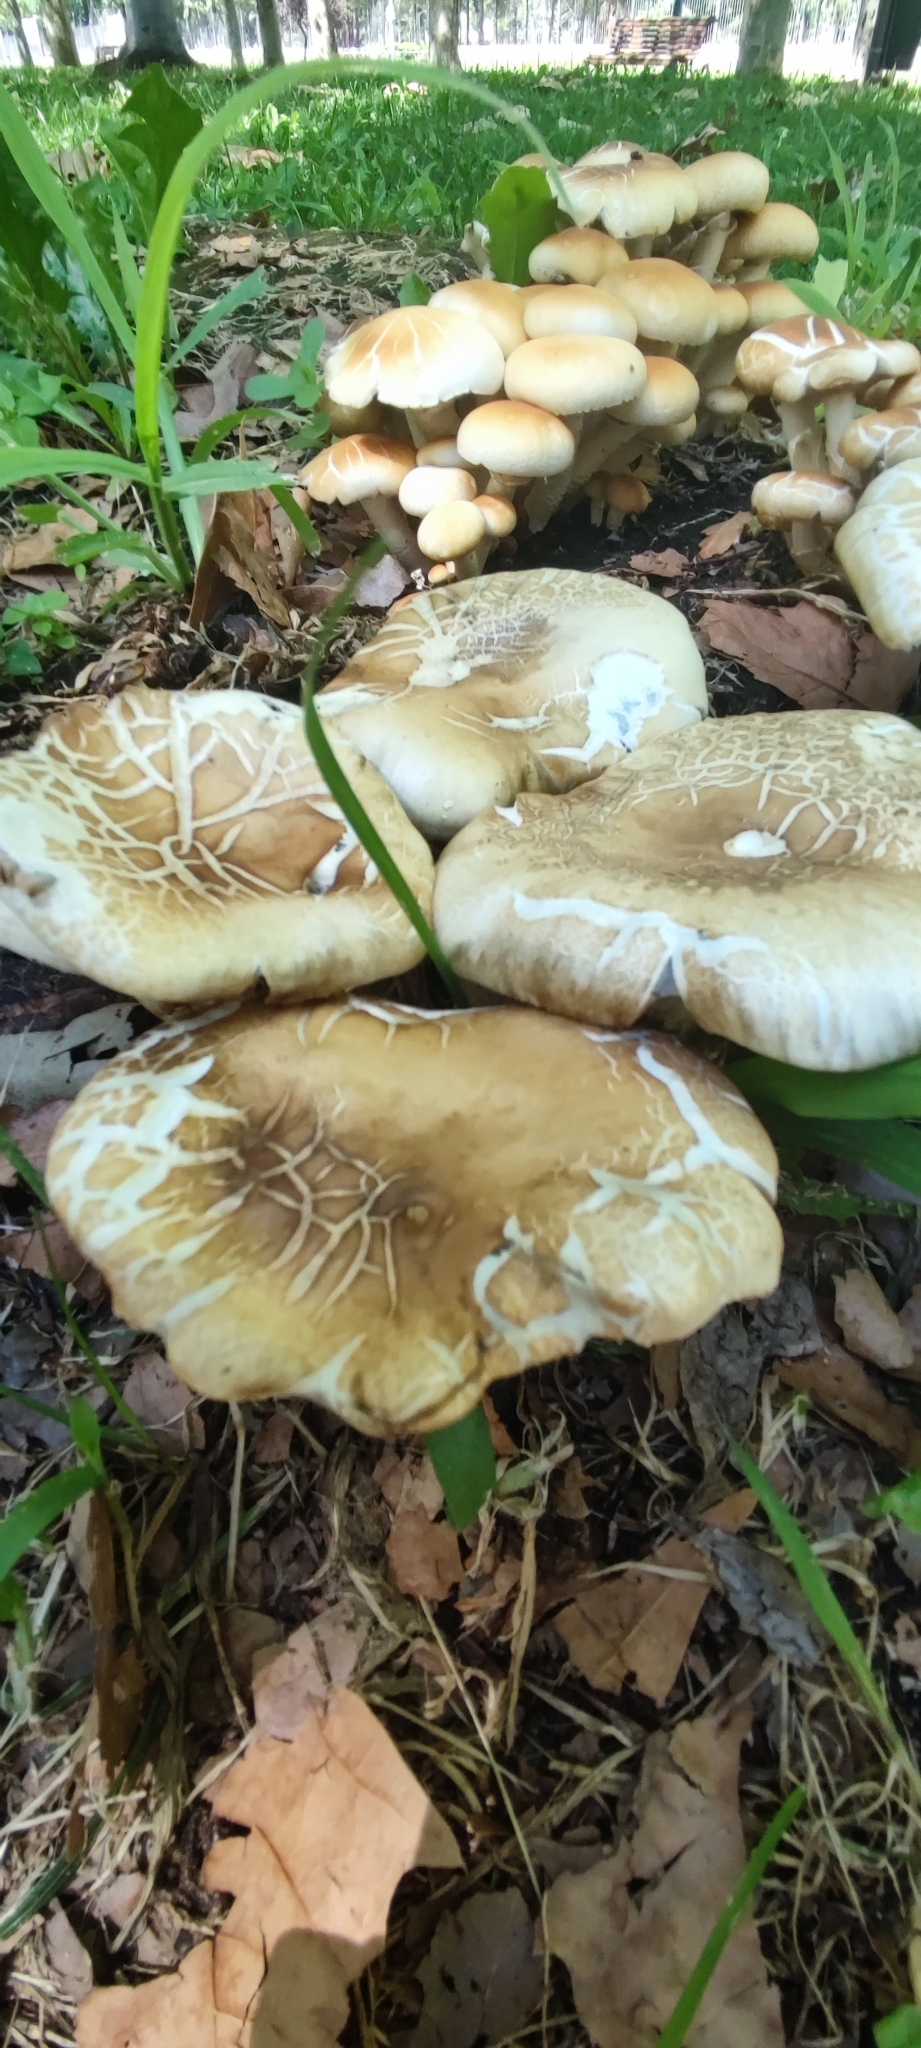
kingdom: Fungi
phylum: Basidiomycota
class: Agaricomycetes
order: Agaricales
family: Tubariaceae
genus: Cyclocybe
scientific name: Cyclocybe cylindracea
